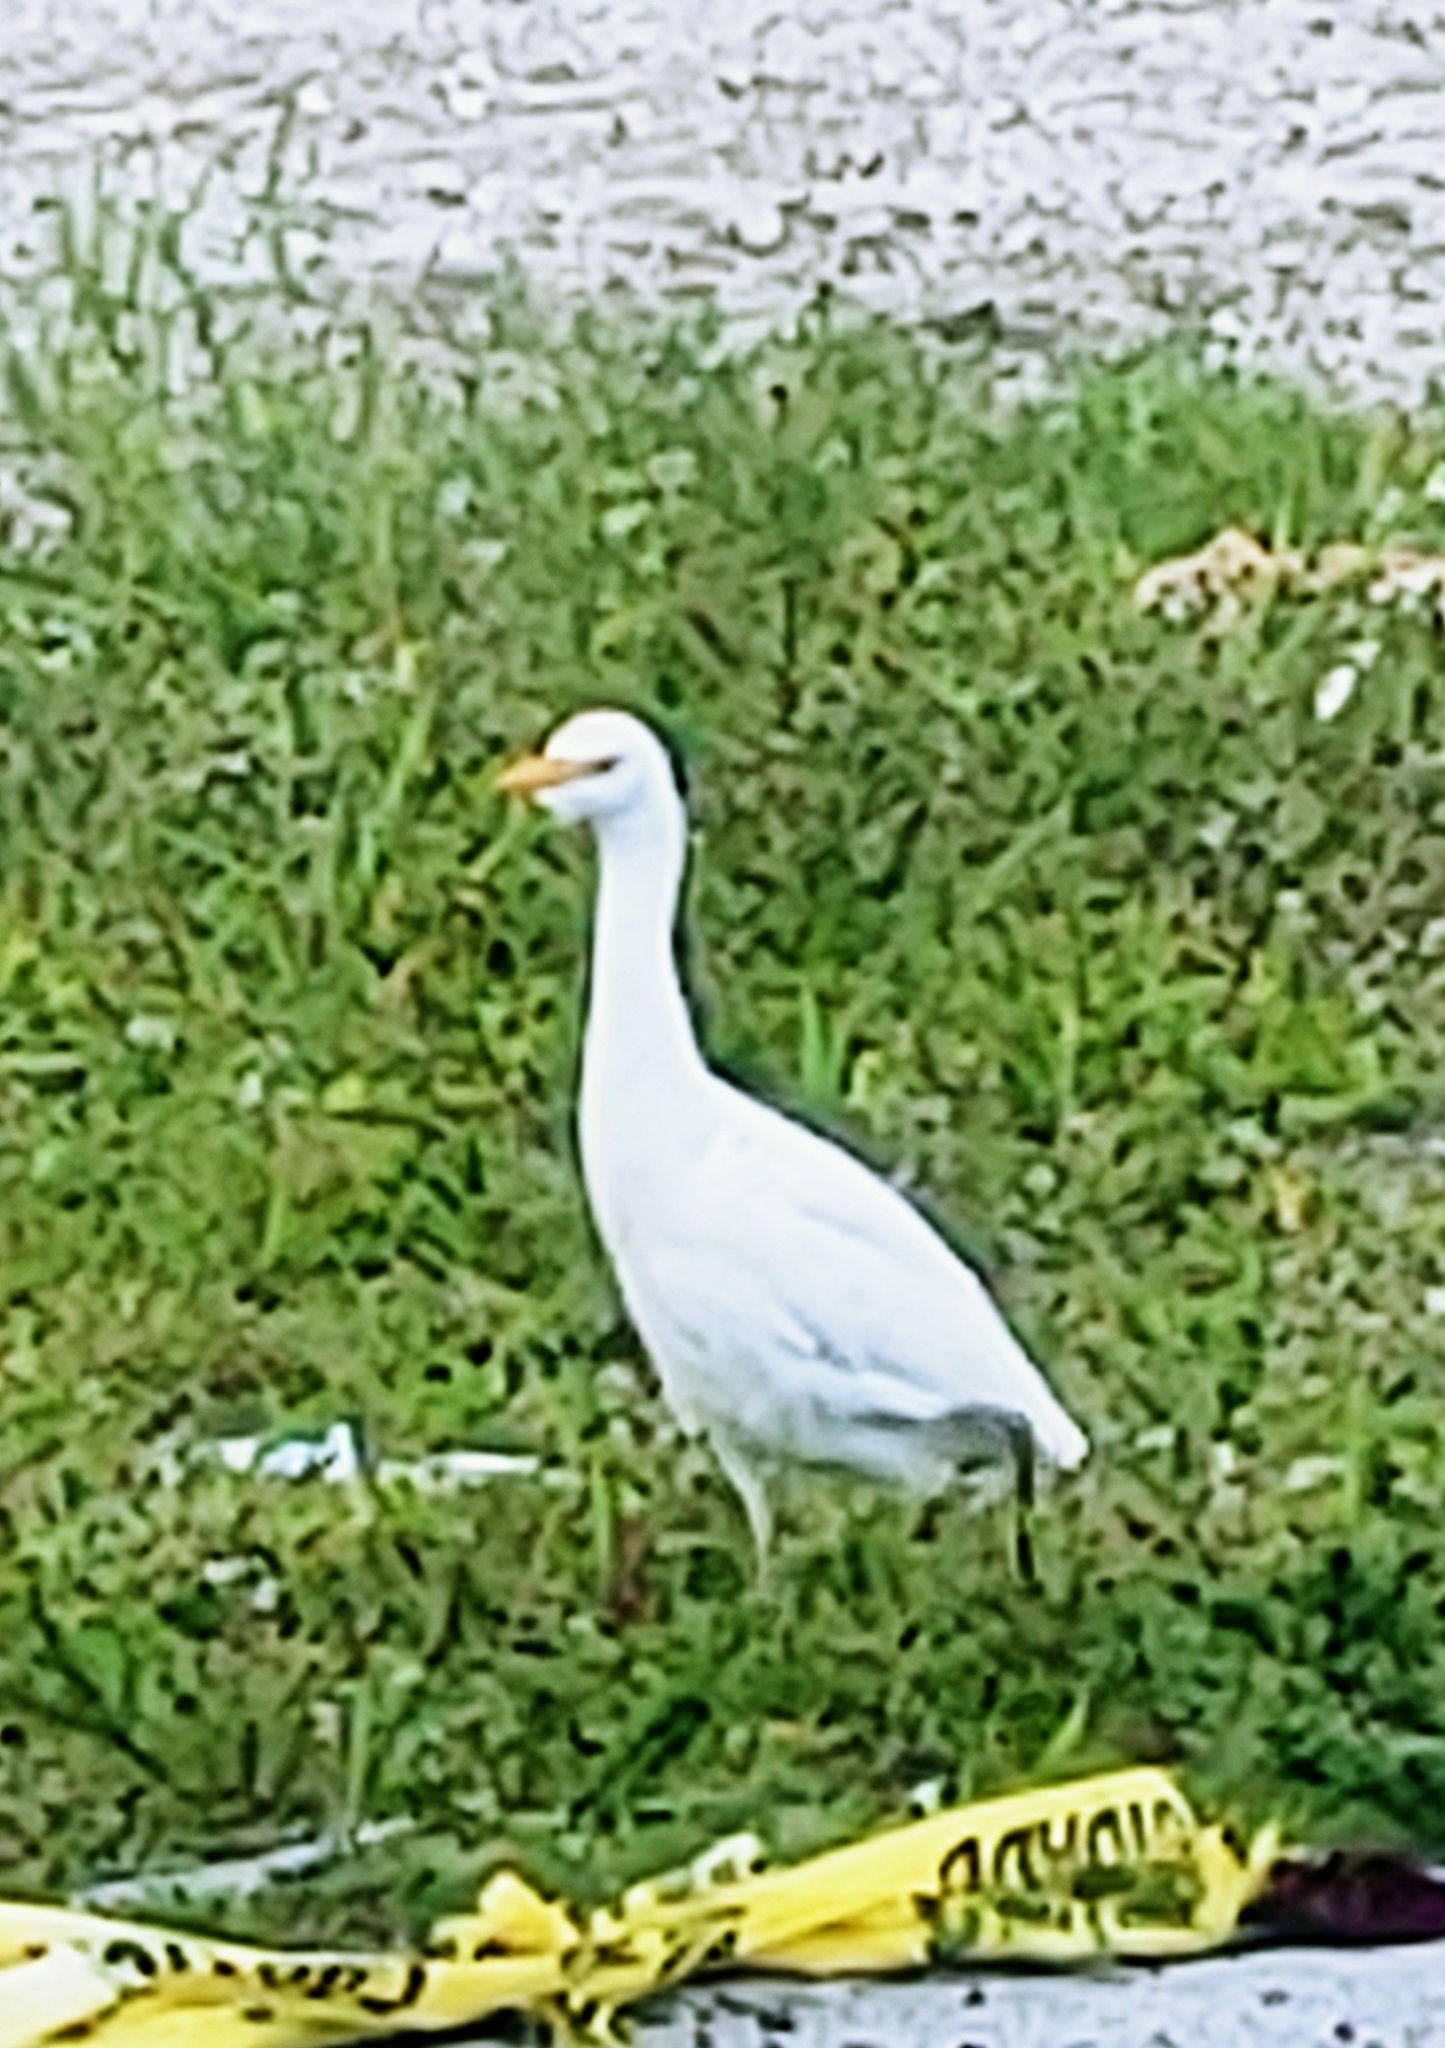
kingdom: Animalia
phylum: Chordata
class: Aves
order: Pelecaniformes
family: Ardeidae
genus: Bubulcus
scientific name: Bubulcus ibis
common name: Cattle egret
